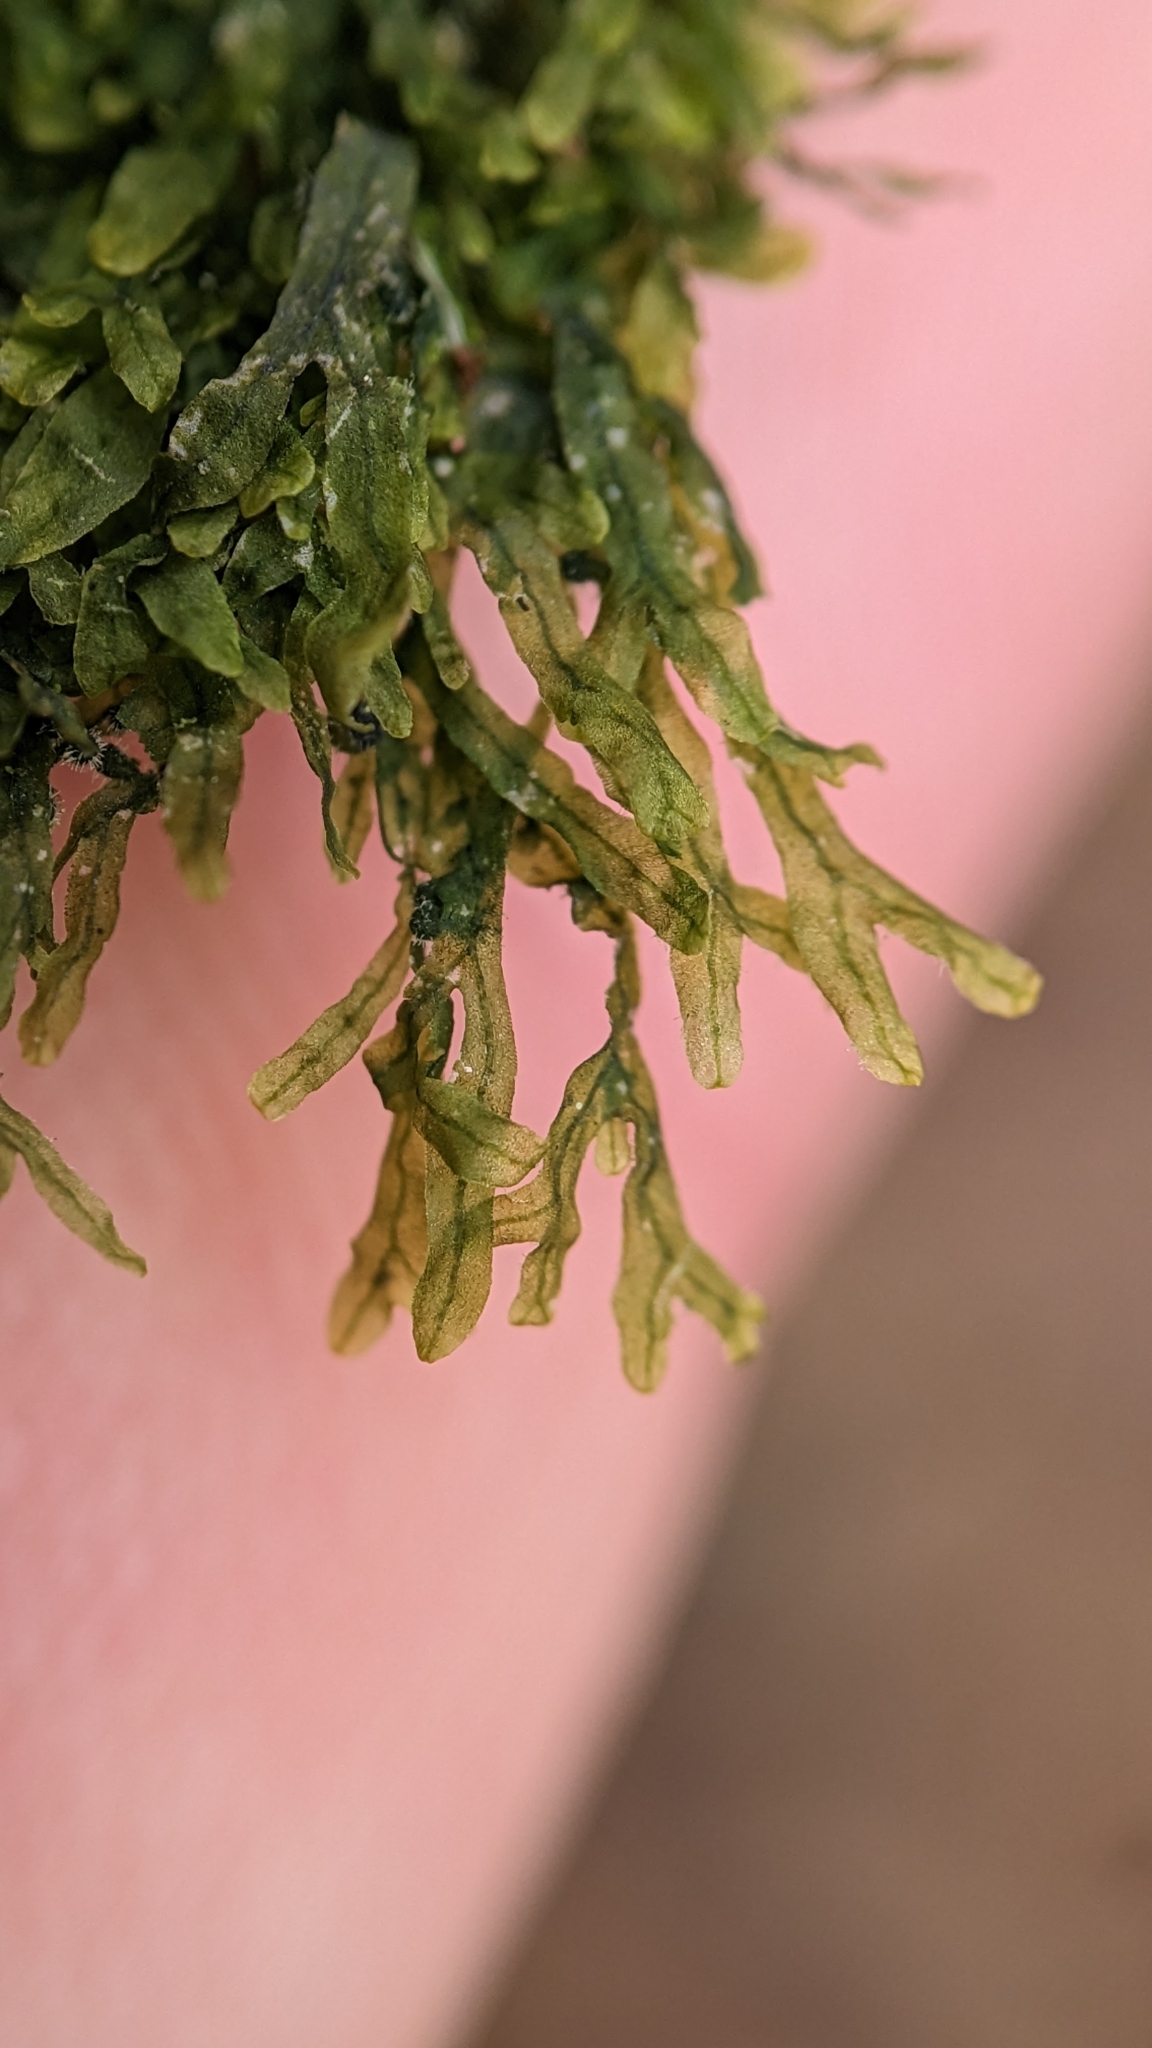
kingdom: Plantae
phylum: Marchantiophyta
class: Jungermanniopsida
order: Metzgeriales
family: Metzgeriaceae
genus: Metzgeria
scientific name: Metzgeria furcata
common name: Forked veilwort
